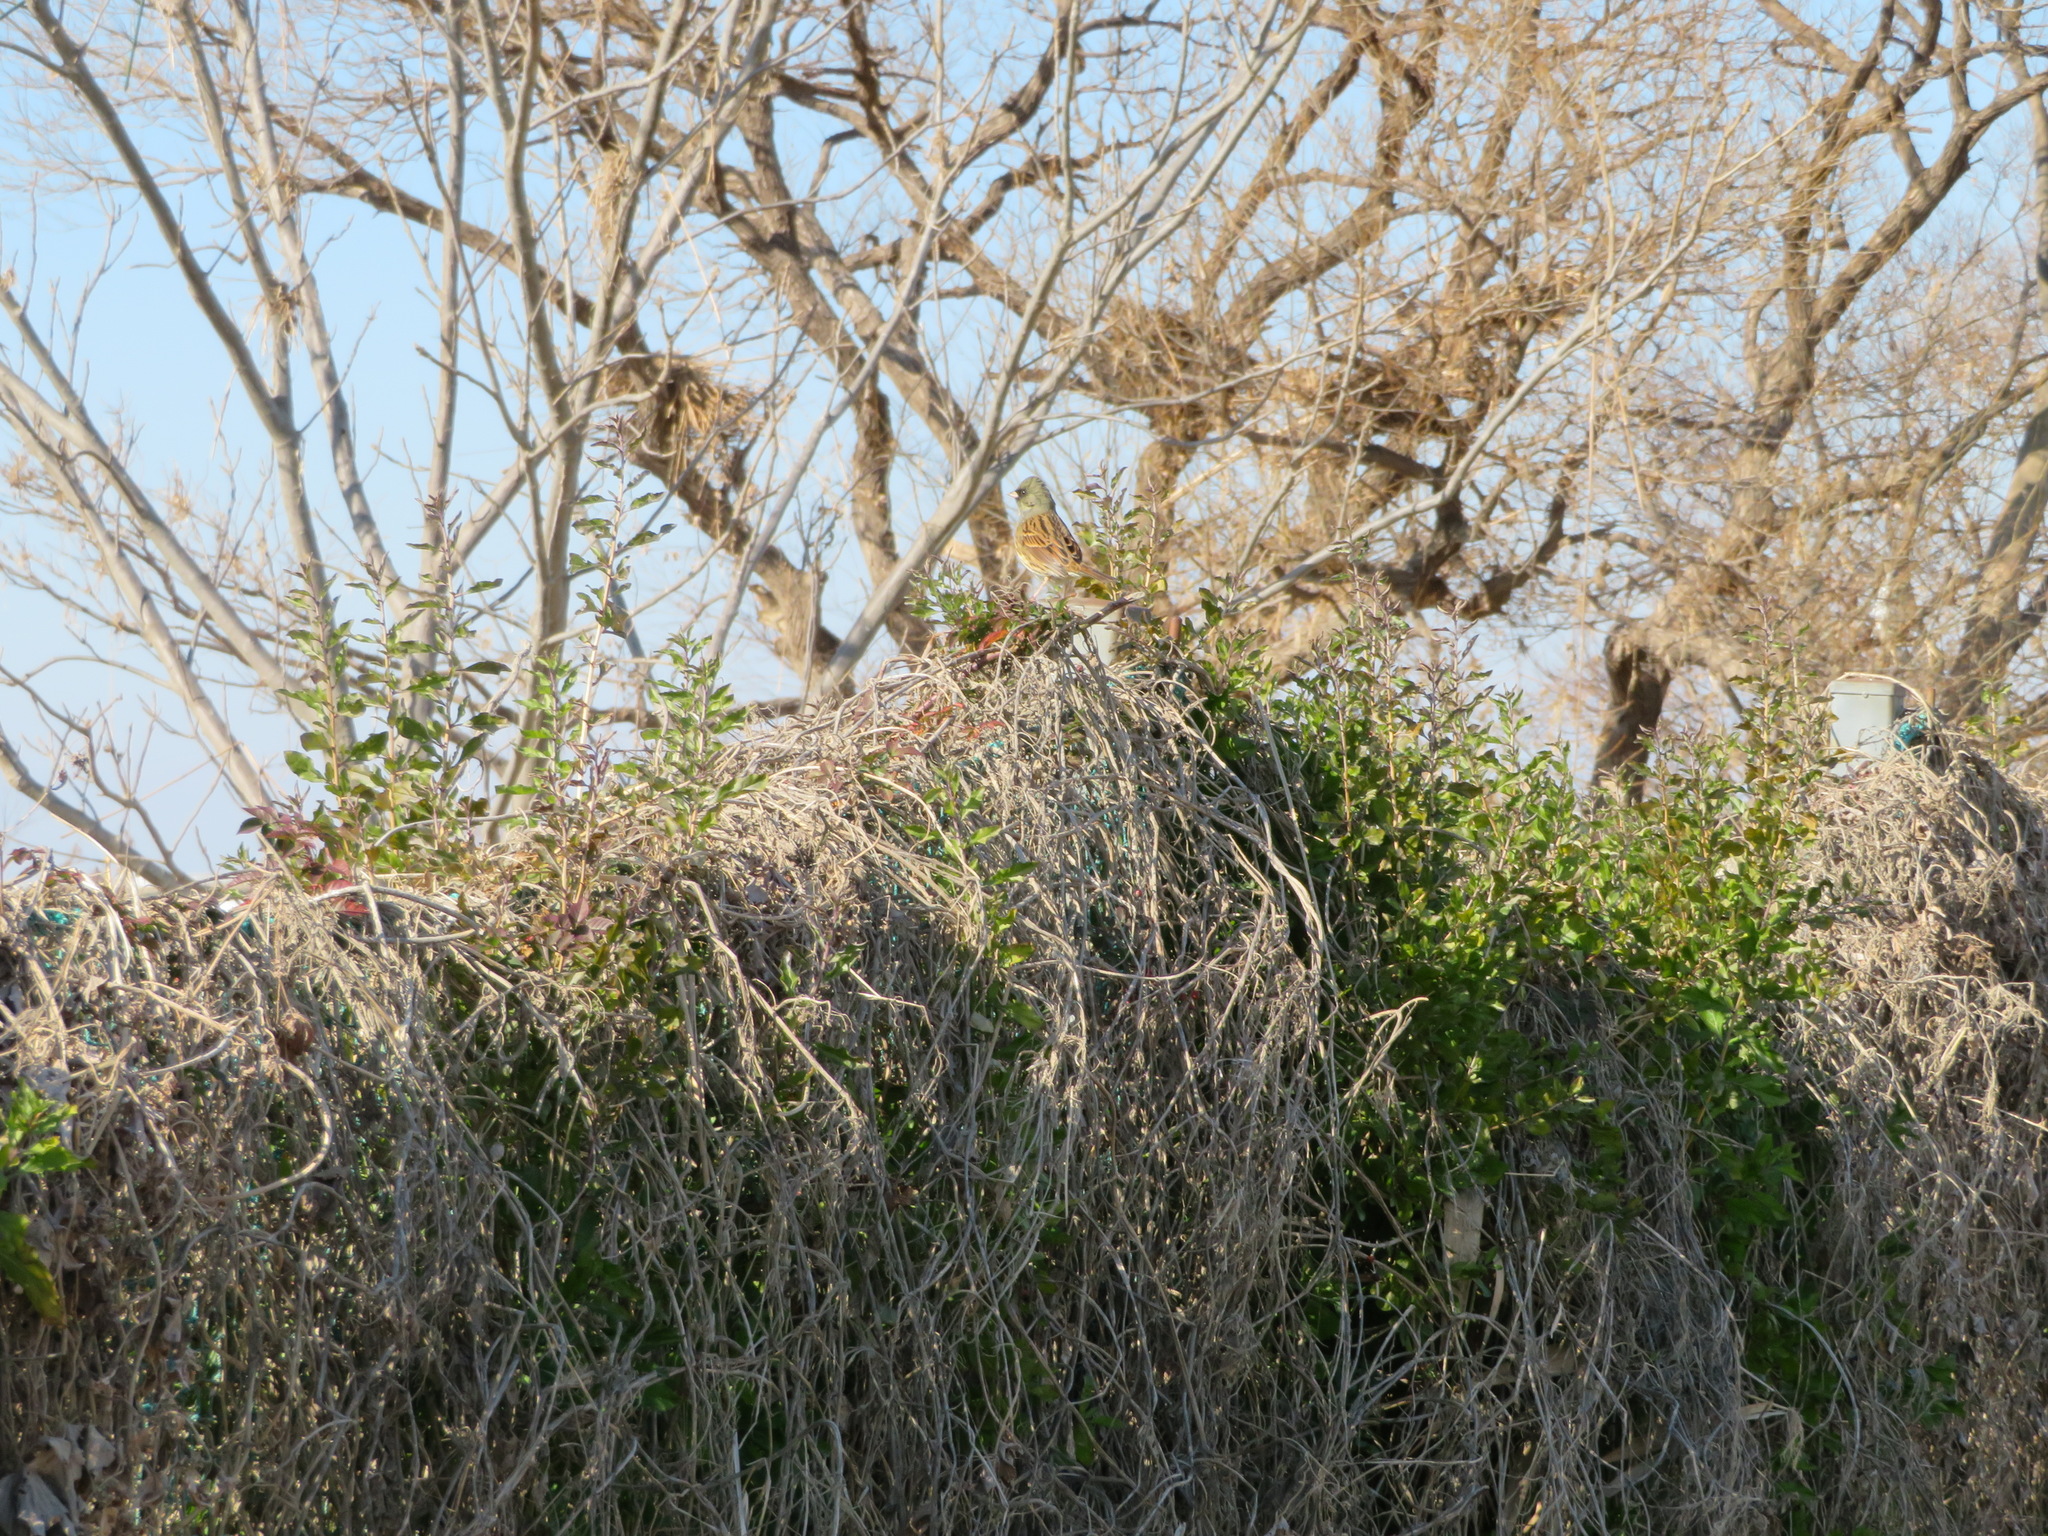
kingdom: Animalia
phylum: Chordata
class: Aves
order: Passeriformes
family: Emberizidae
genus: Emberiza
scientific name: Emberiza personata
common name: Masked bunting
